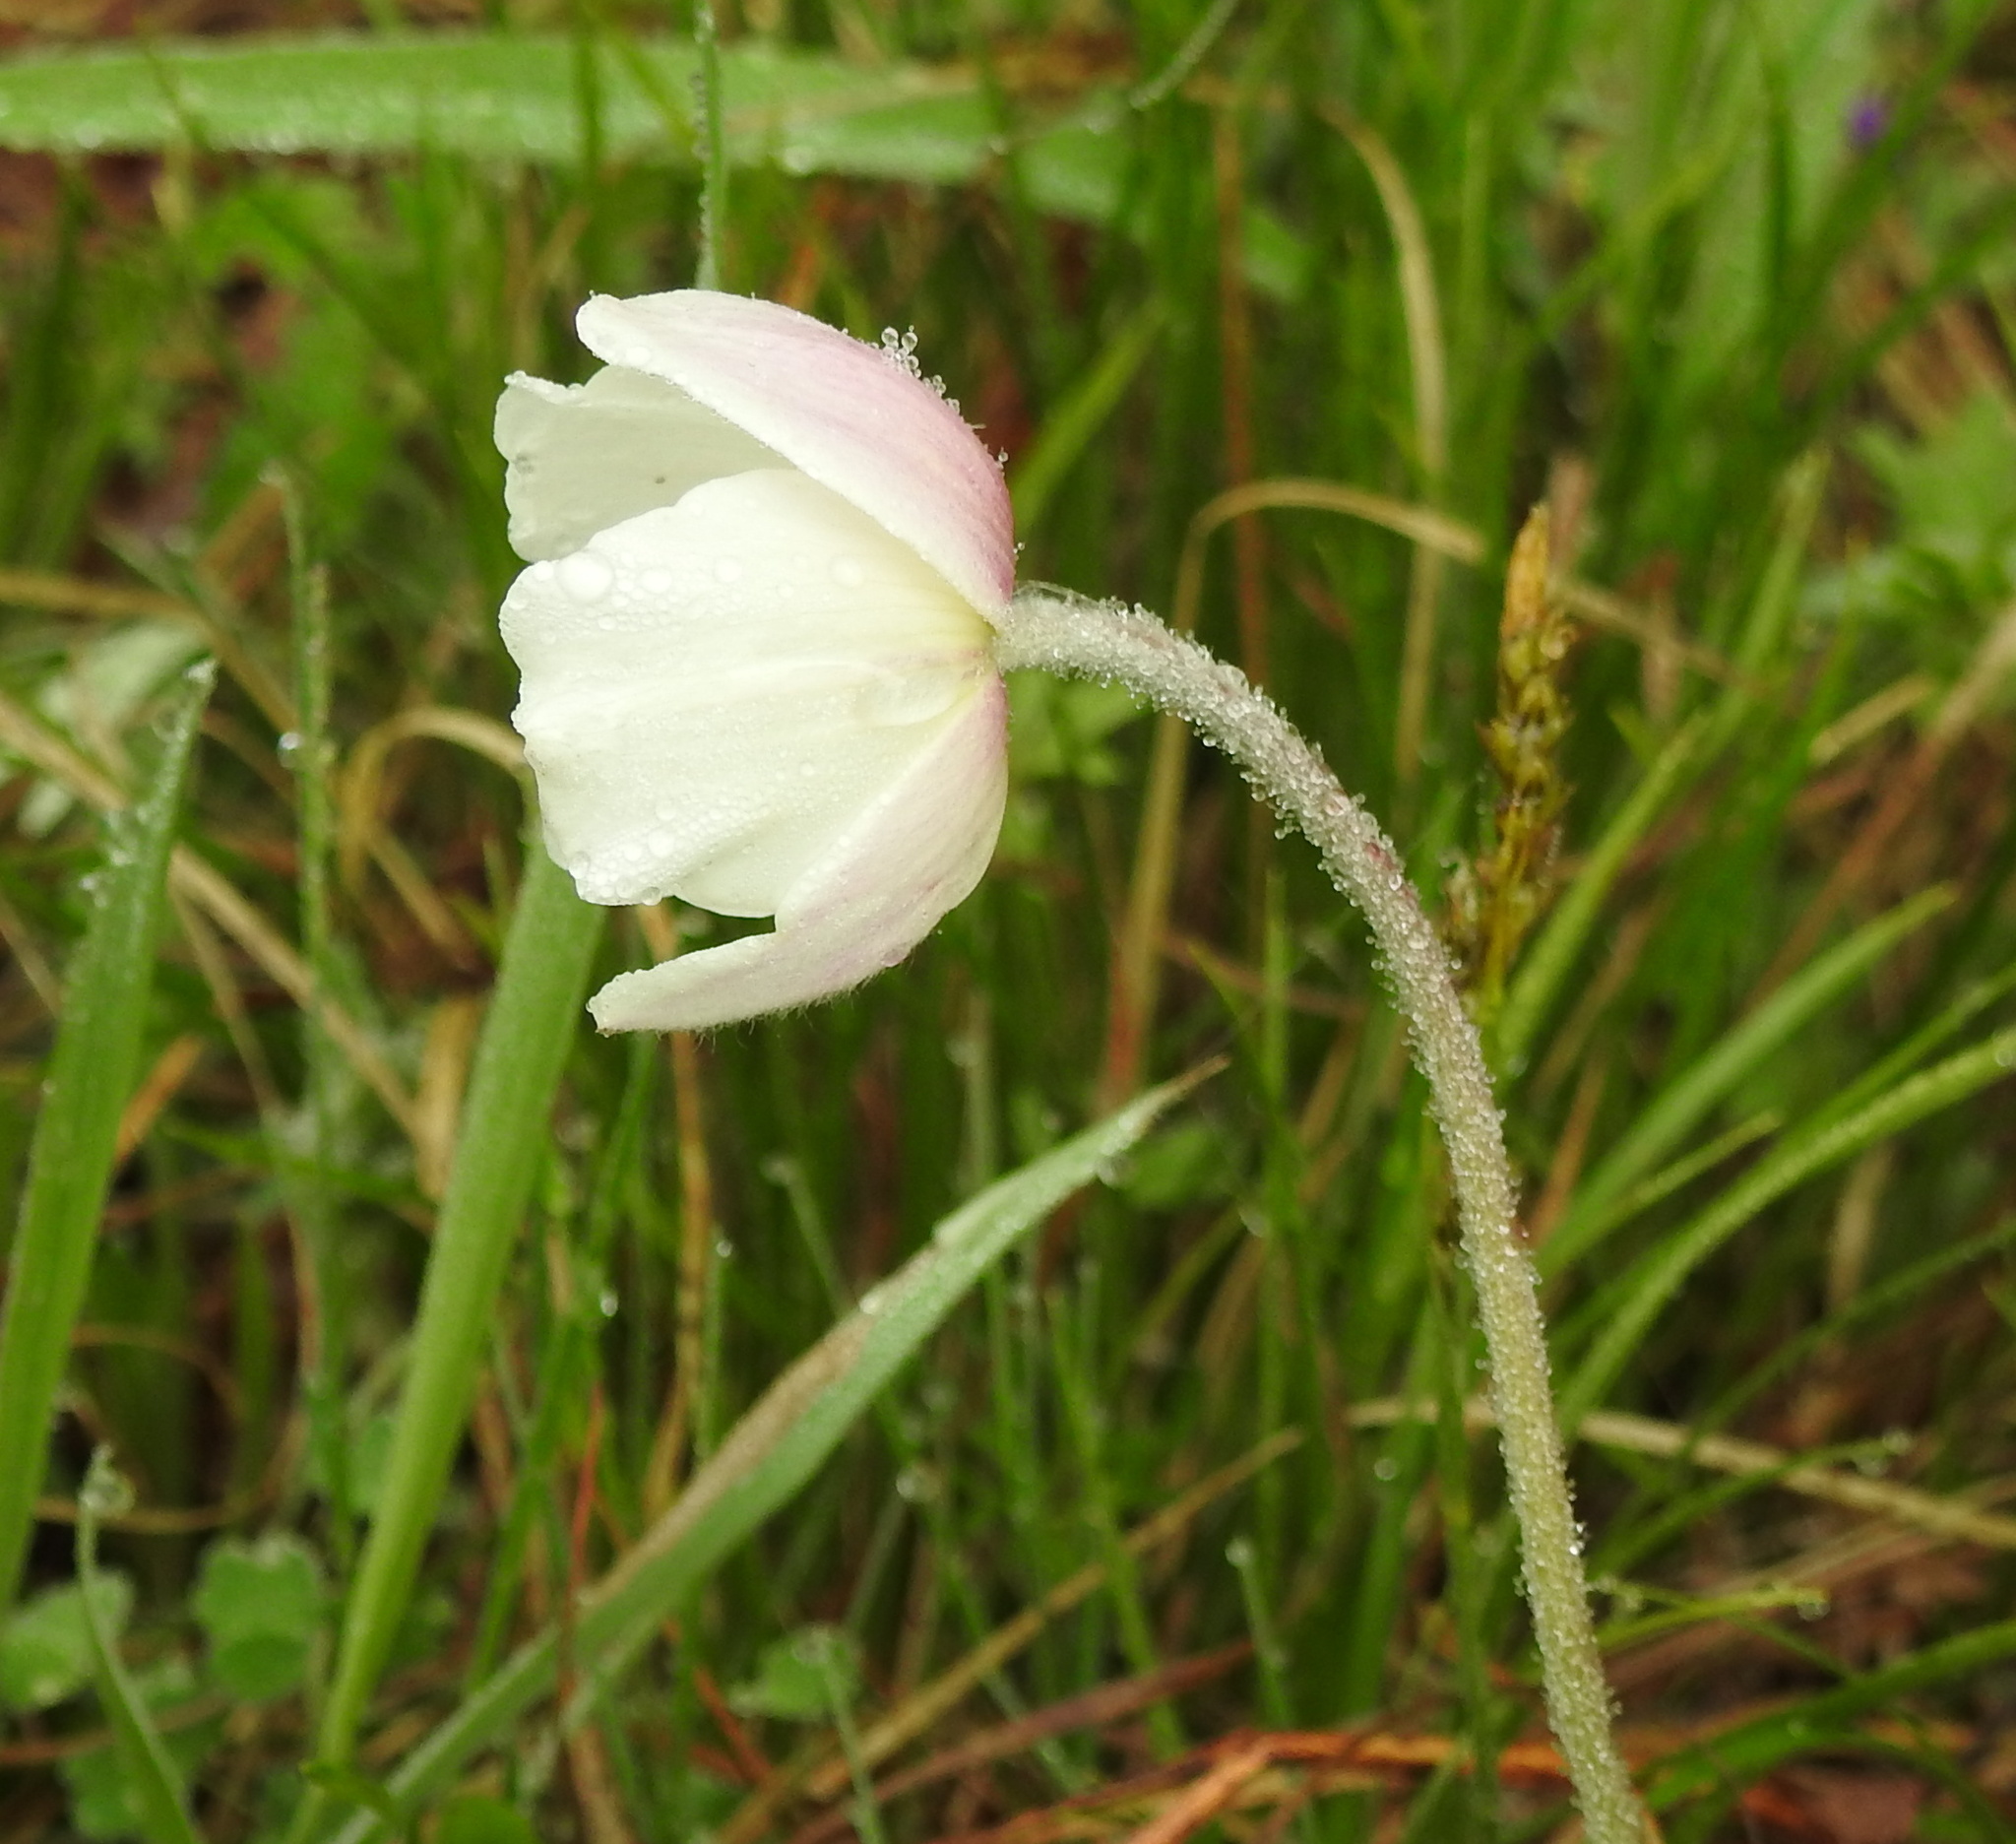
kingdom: Plantae
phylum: Tracheophyta
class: Magnoliopsida
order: Ranunculales
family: Ranunculaceae
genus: Anemone
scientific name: Anemone sylvestris
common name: Snowdrop anemone
